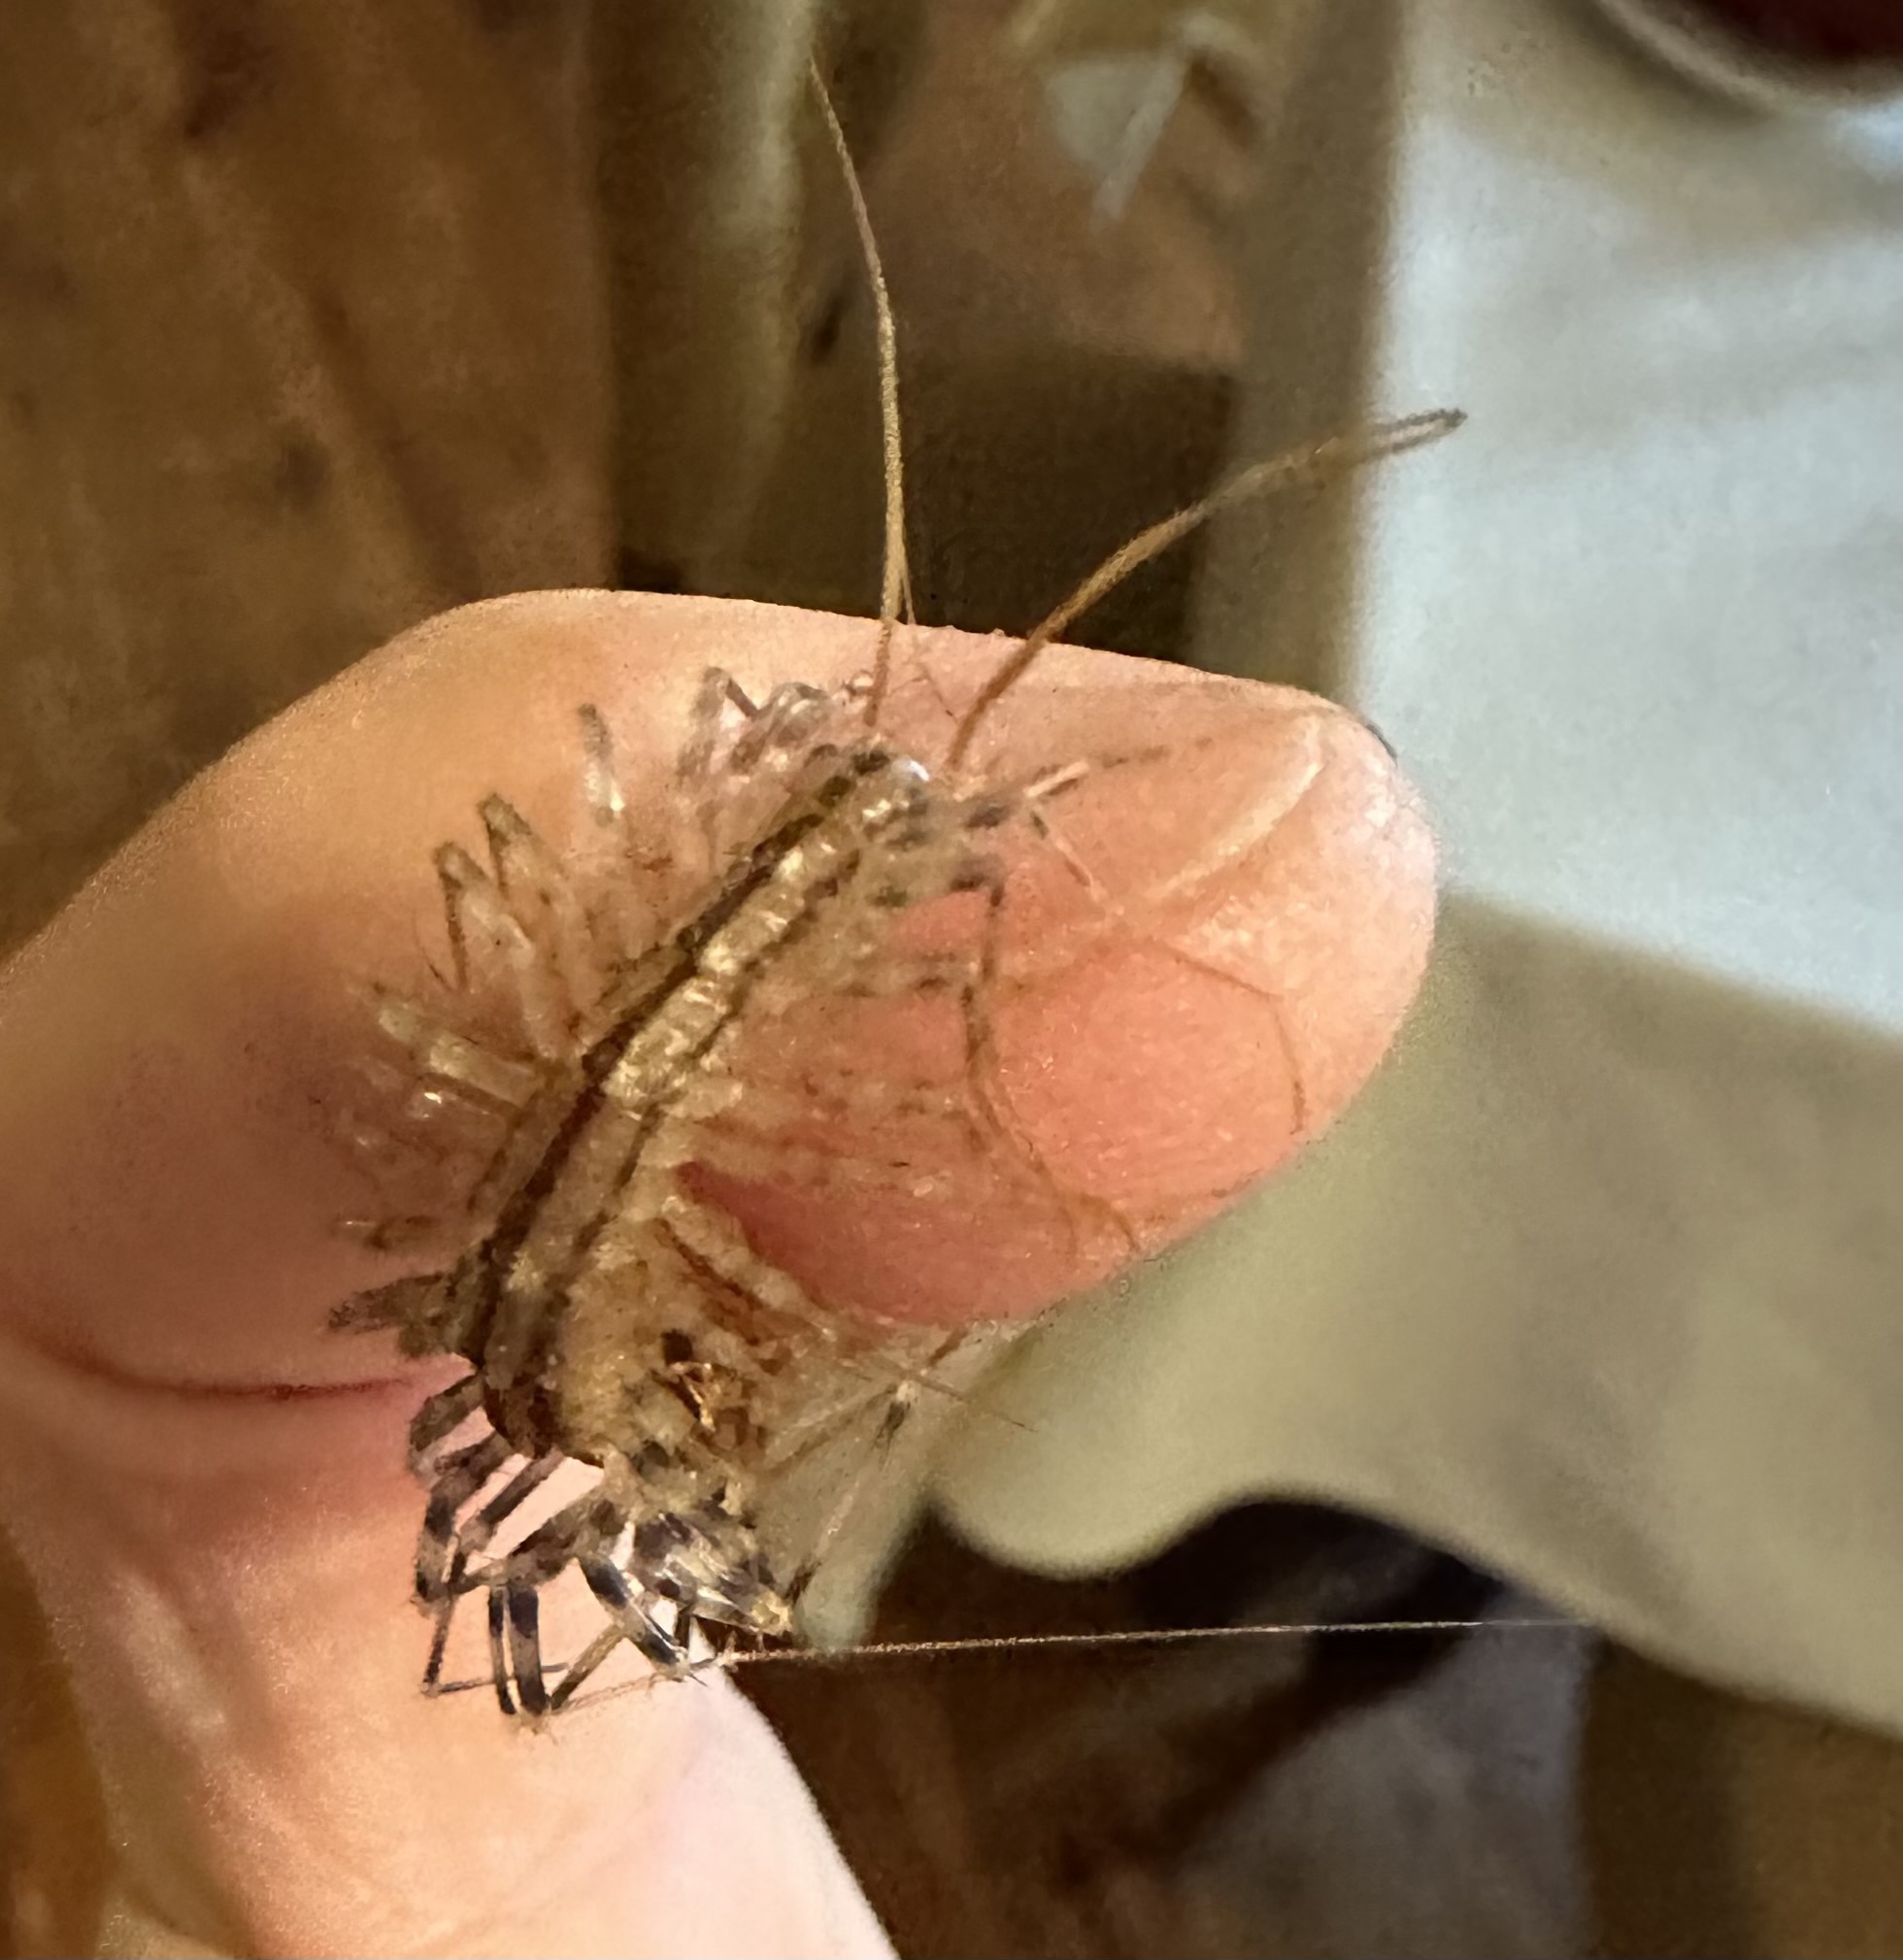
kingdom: Animalia
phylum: Arthropoda
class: Chilopoda
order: Scutigeromorpha
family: Scutigeridae
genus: Scutigera
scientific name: Scutigera coleoptrata
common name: House centipede
